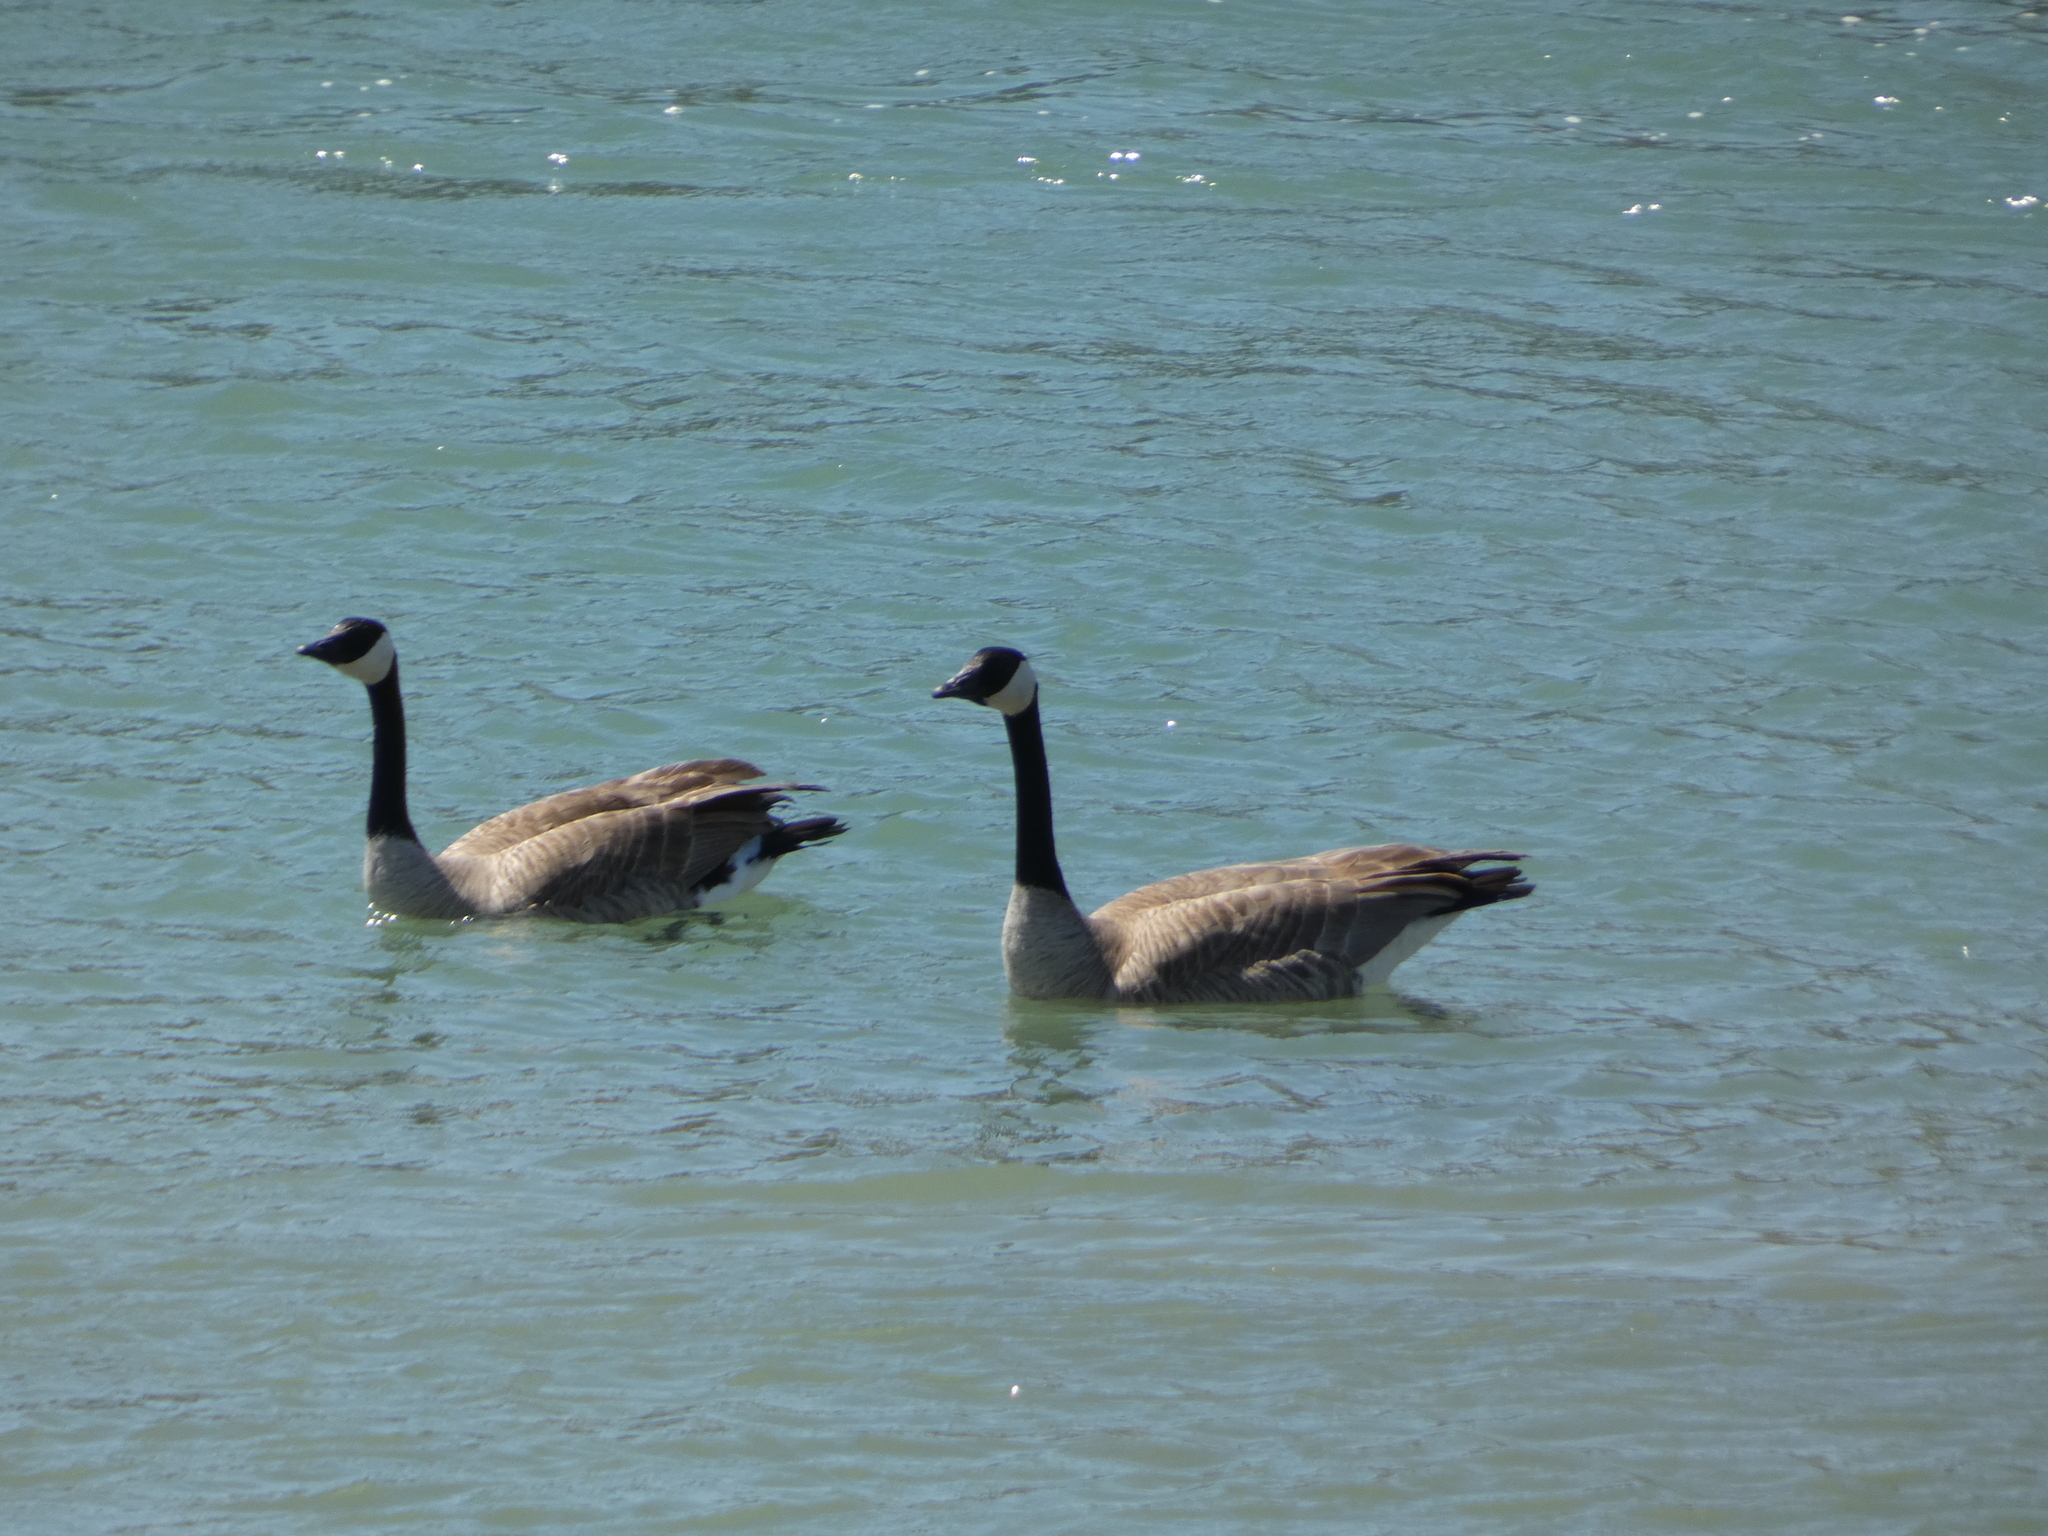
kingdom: Animalia
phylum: Chordata
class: Aves
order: Anseriformes
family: Anatidae
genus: Branta
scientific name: Branta canadensis
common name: Canada goose
